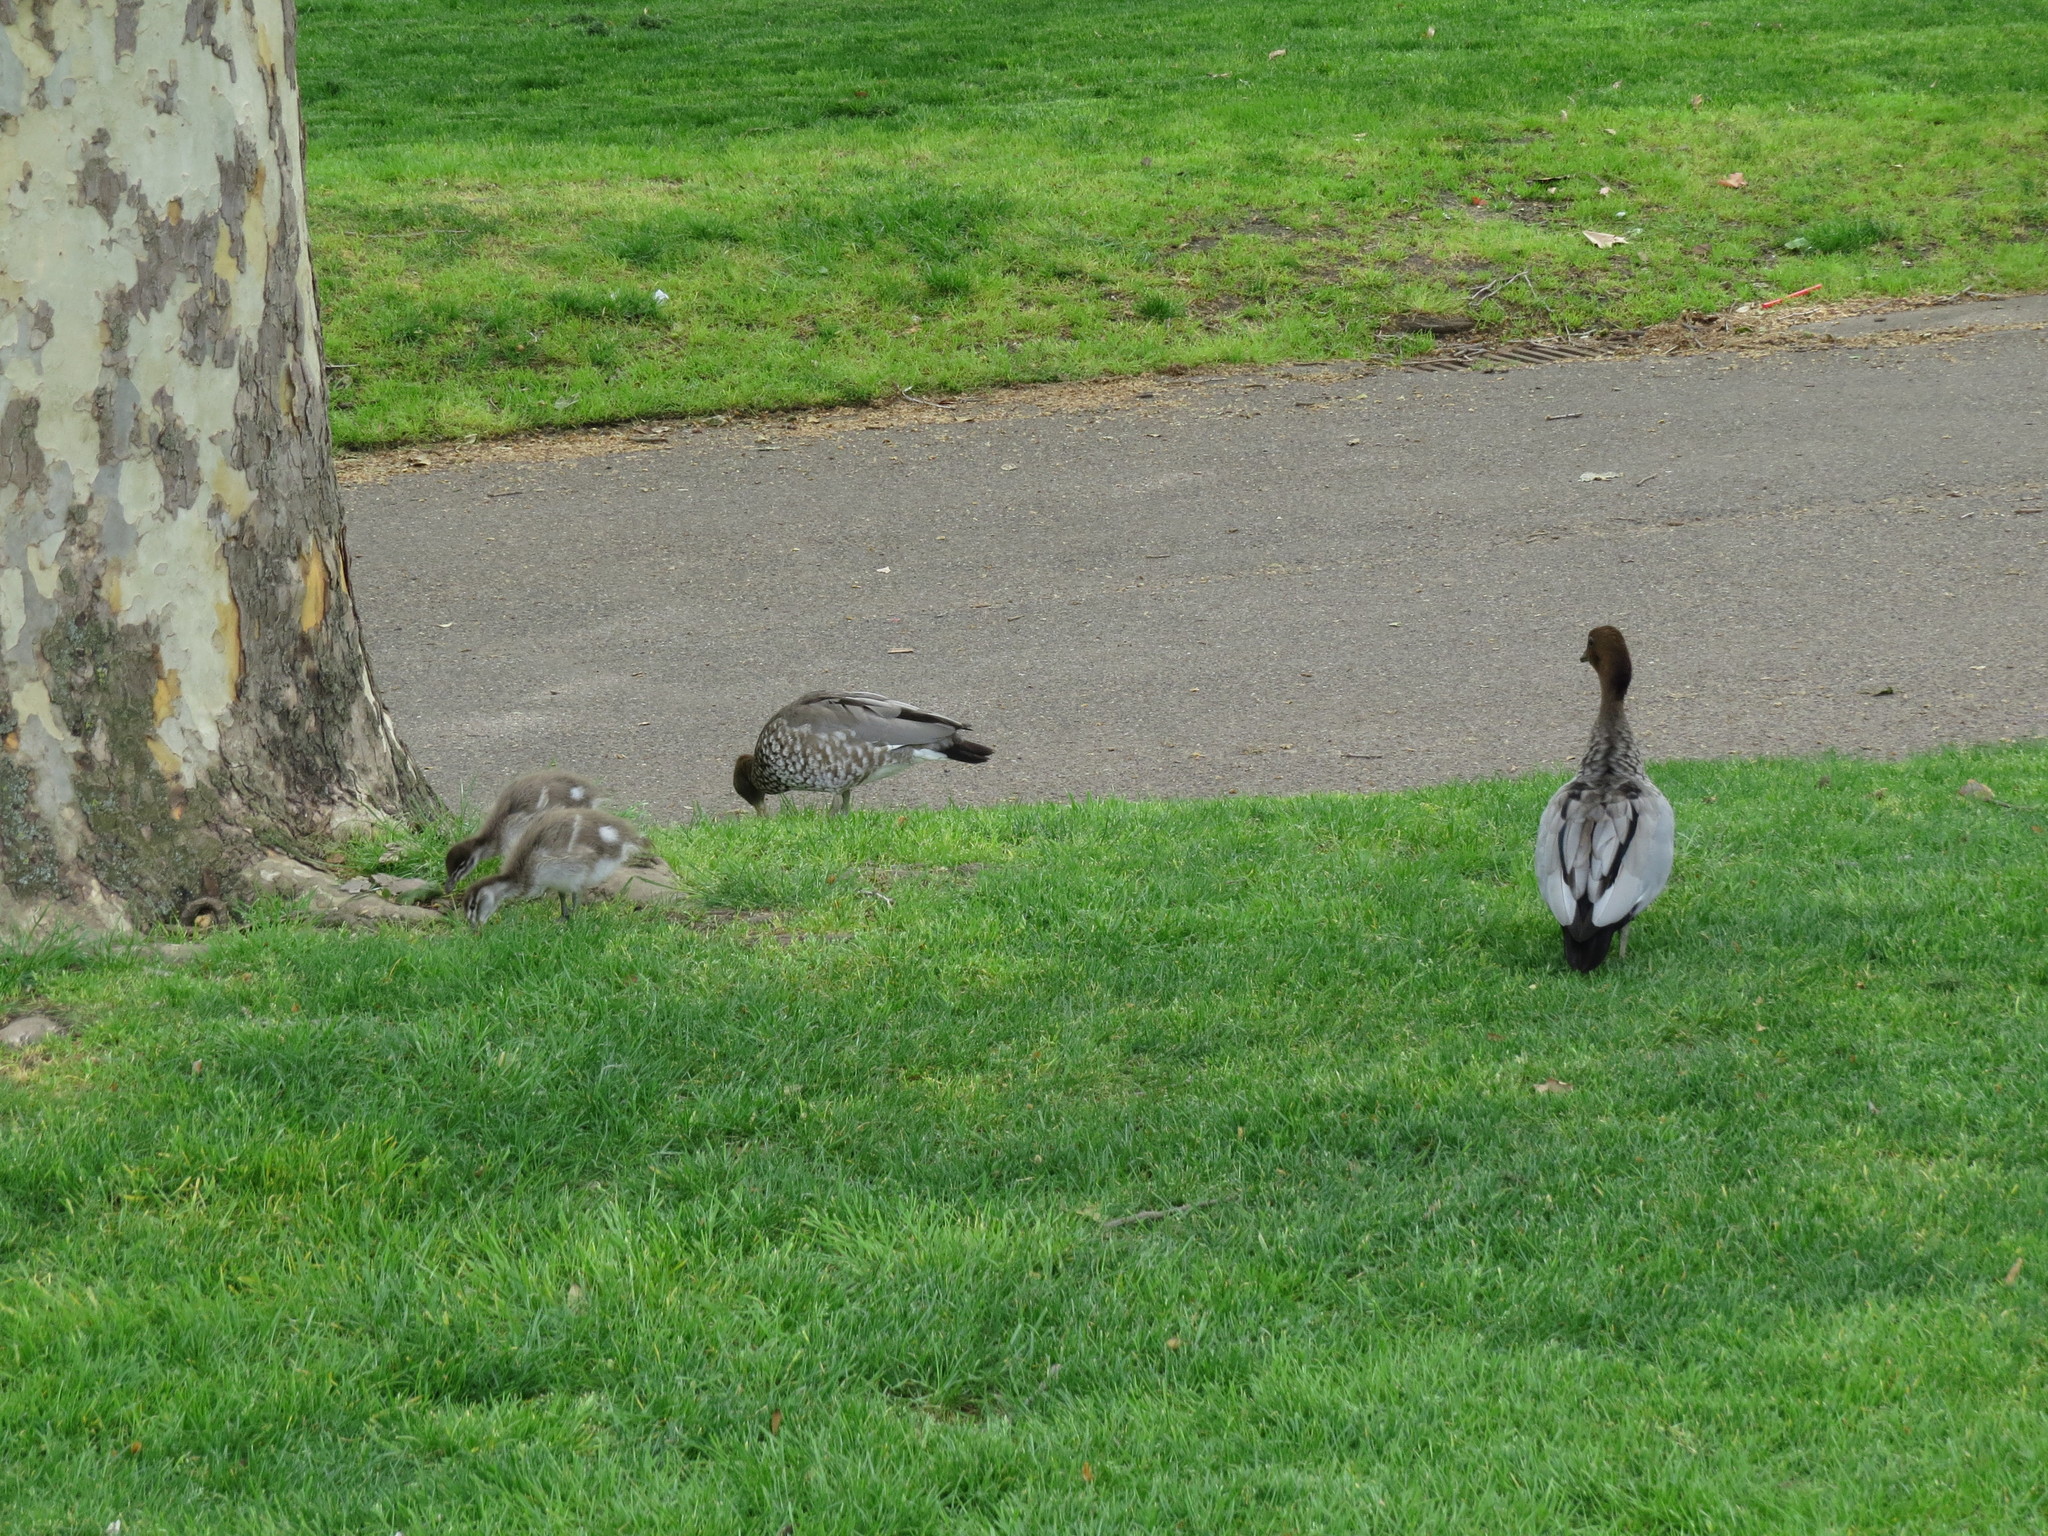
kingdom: Animalia
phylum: Chordata
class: Aves
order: Anseriformes
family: Anatidae
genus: Chenonetta
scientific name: Chenonetta jubata
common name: Maned duck
